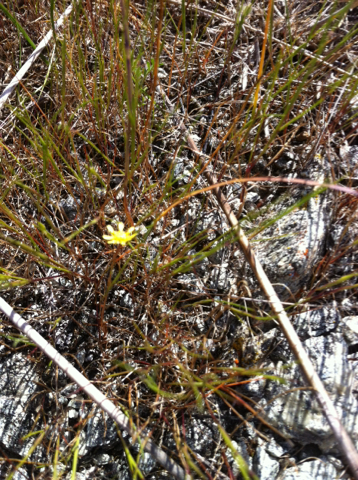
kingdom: Plantae
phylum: Tracheophyta
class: Magnoliopsida
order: Asterales
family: Asteraceae
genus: Blennosperma
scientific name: Blennosperma nanum
